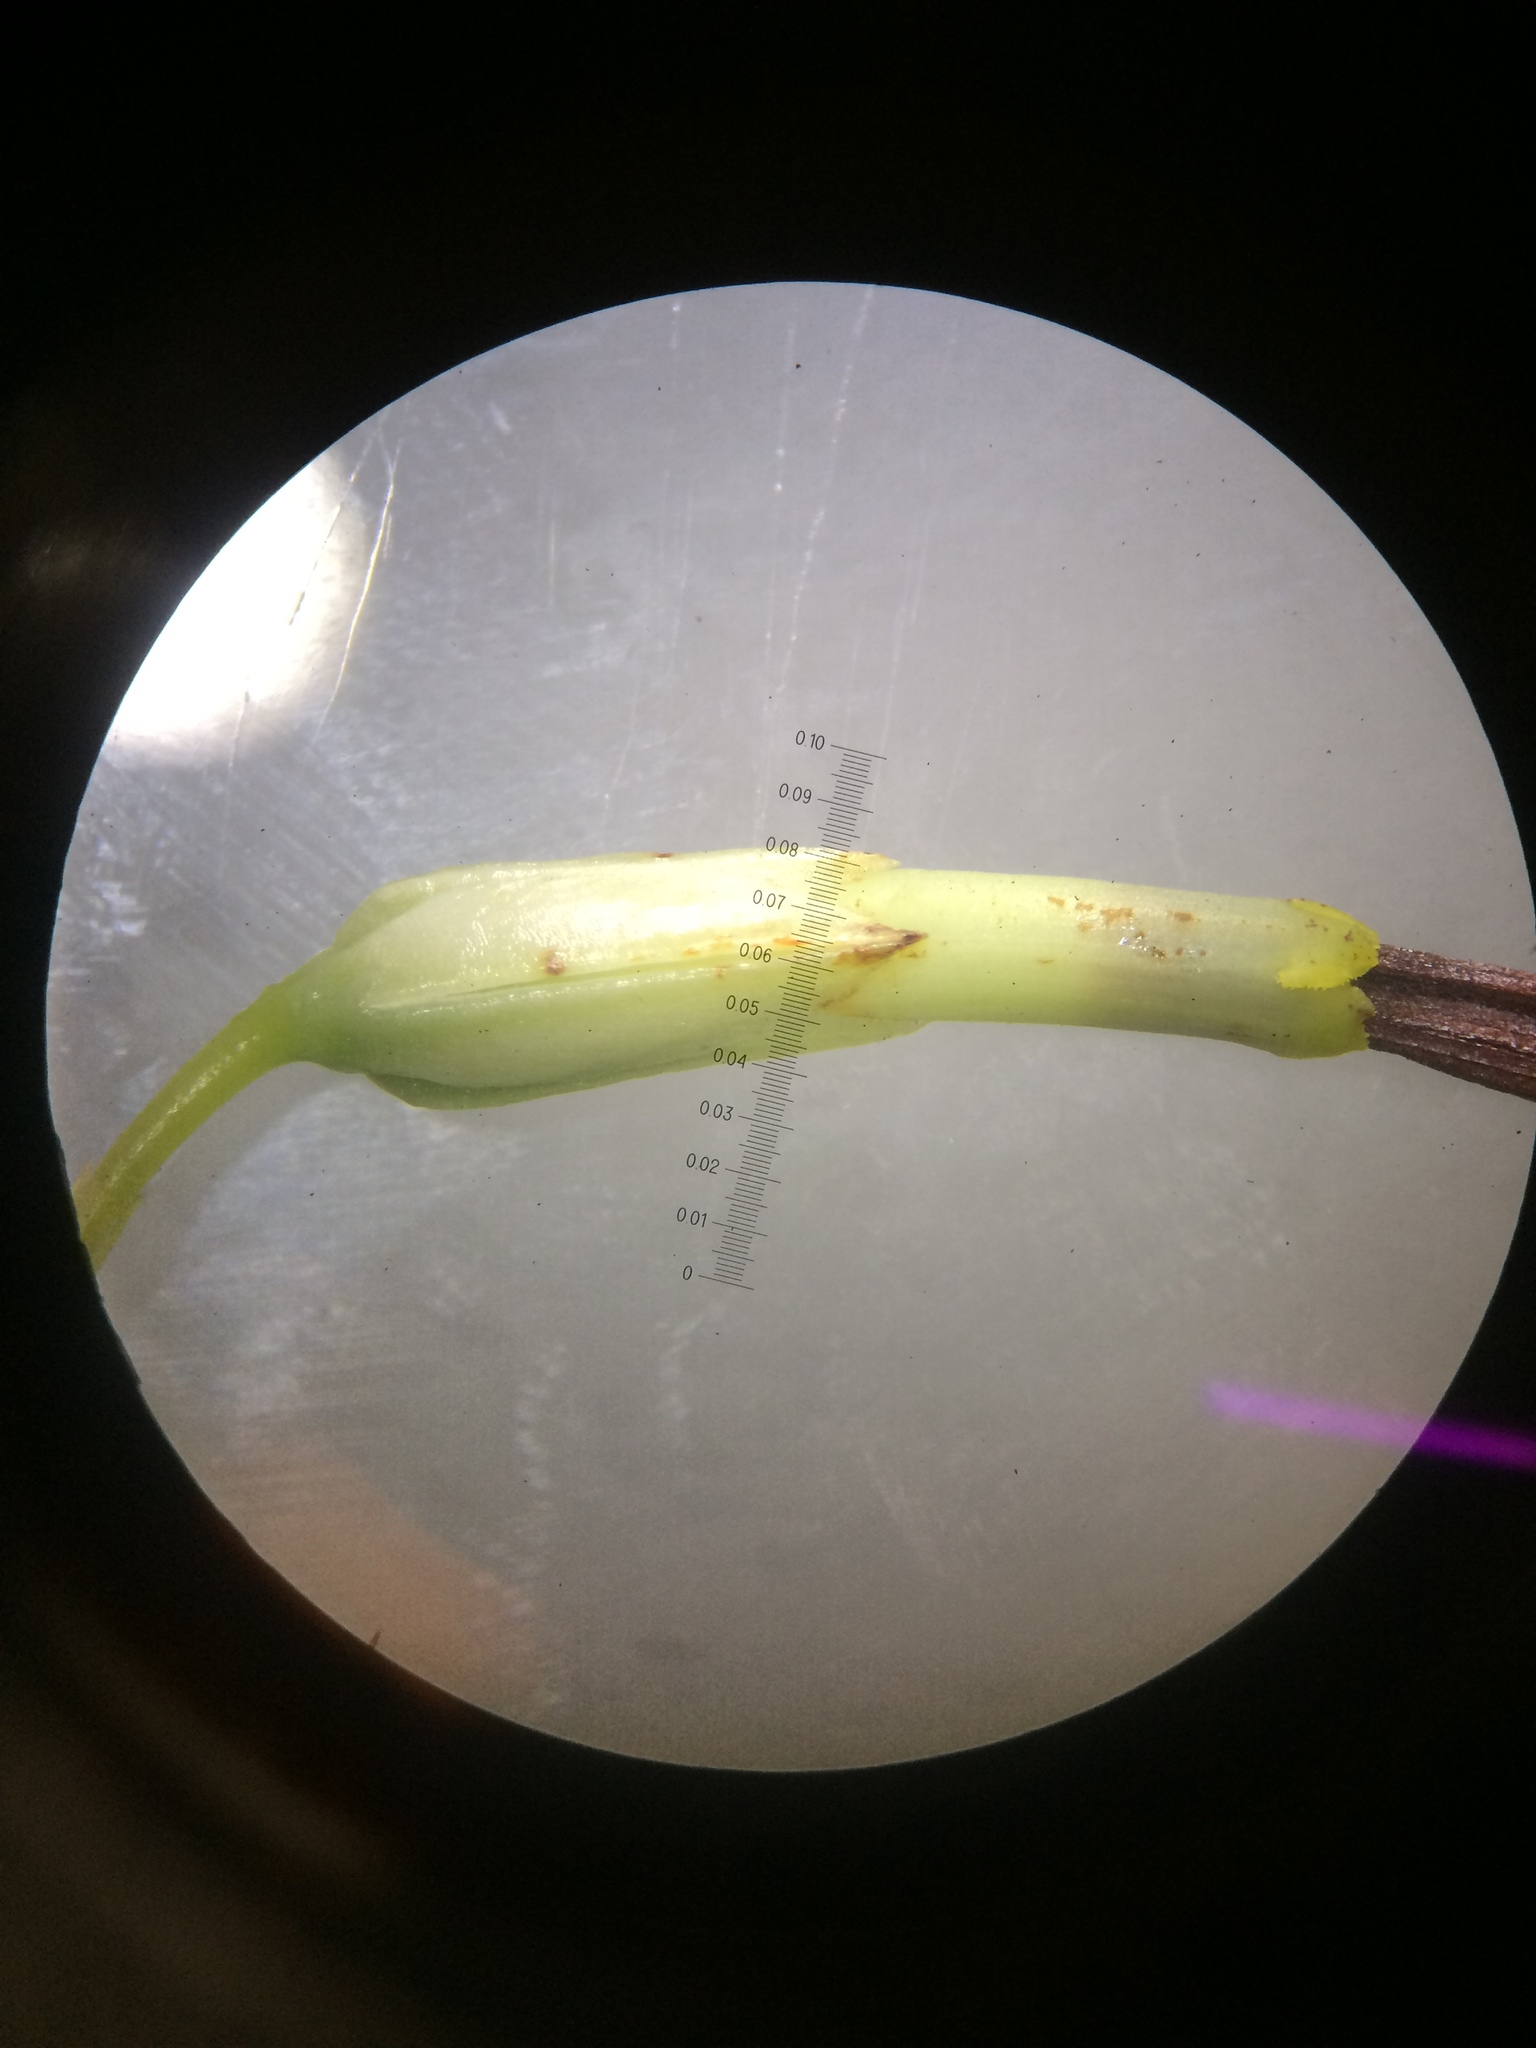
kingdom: Plantae
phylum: Tracheophyta
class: Magnoliopsida
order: Ericales
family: Ericaceae
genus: Erica
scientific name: Erica plukenetii
